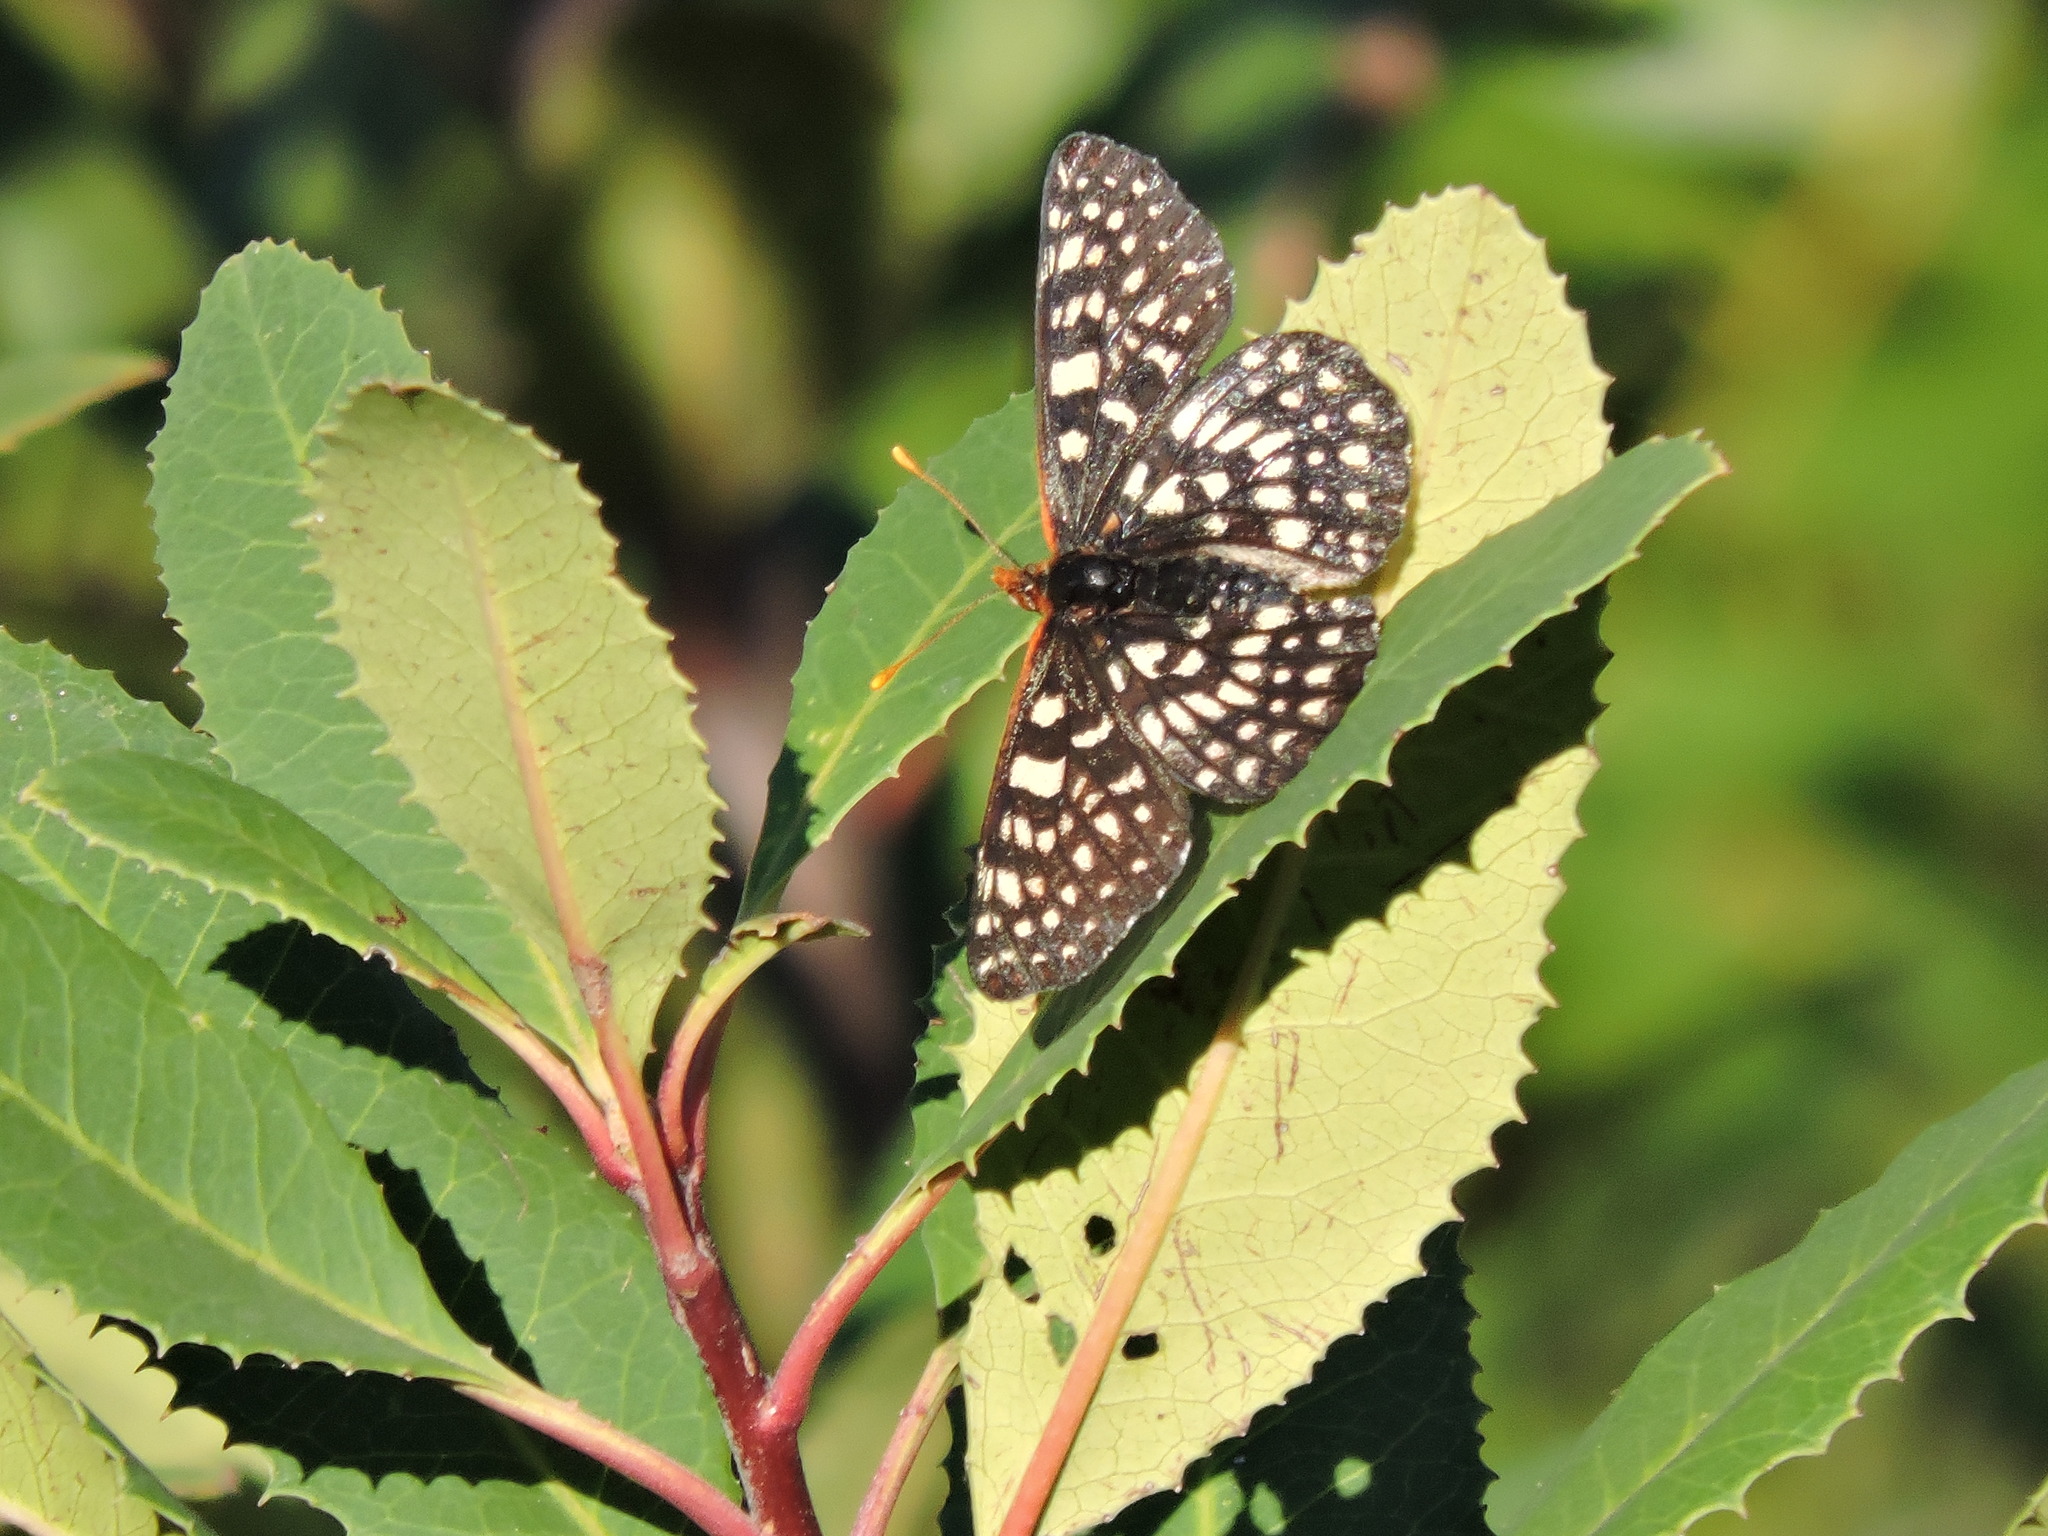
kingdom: Animalia
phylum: Arthropoda
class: Insecta
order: Lepidoptera
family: Nymphalidae
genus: Occidryas
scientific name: Occidryas chalcedona
